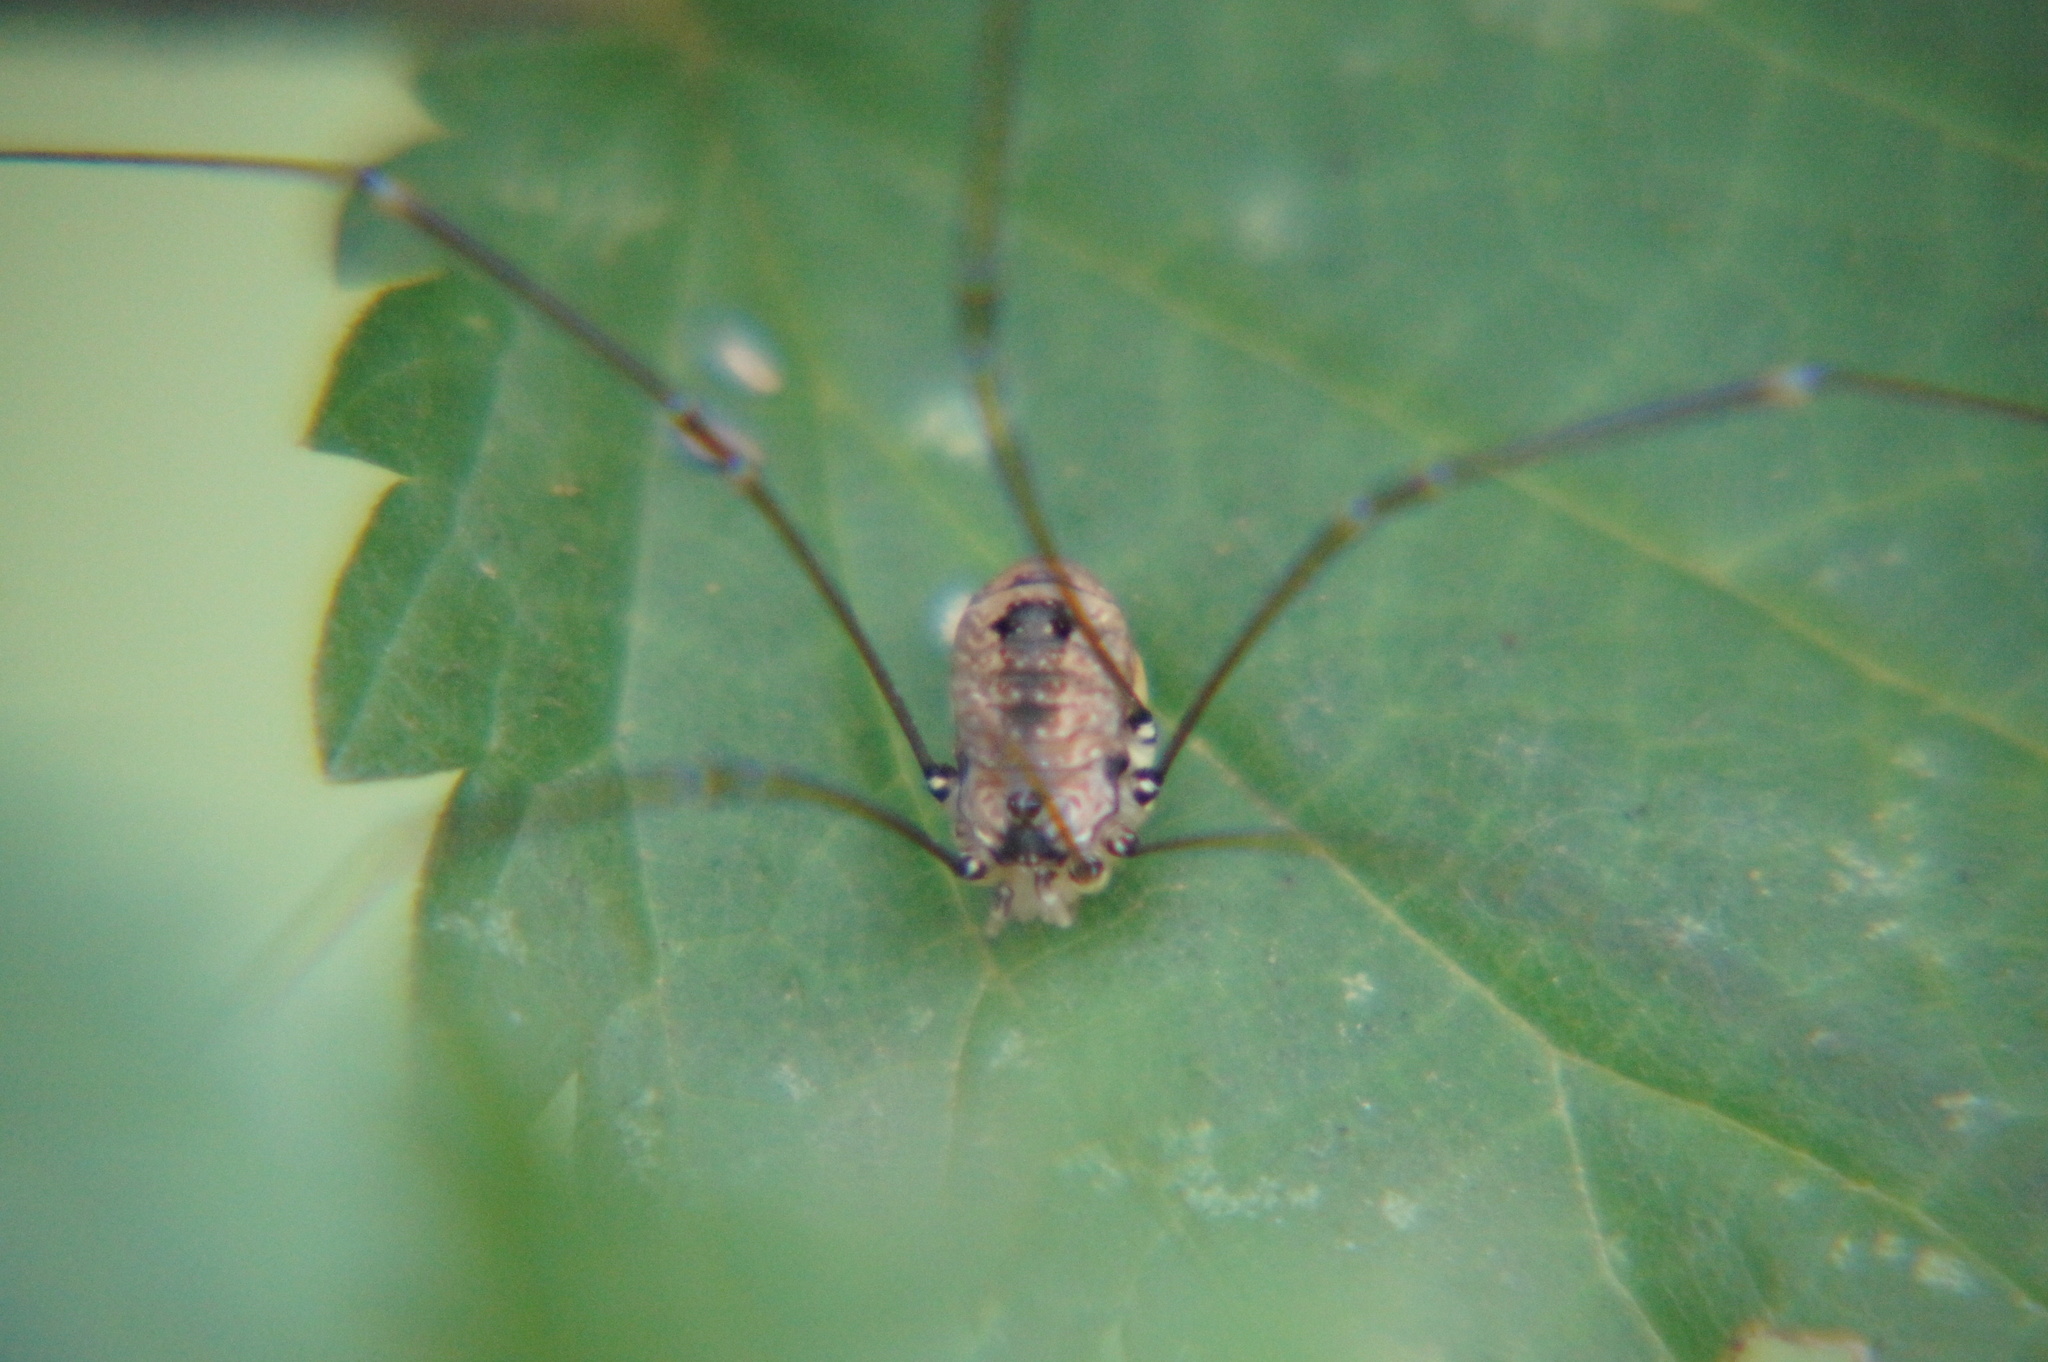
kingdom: Animalia
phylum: Arthropoda
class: Arachnida
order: Opiliones
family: Sclerosomatidae
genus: Leiobunum
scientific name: Leiobunum rotundum
